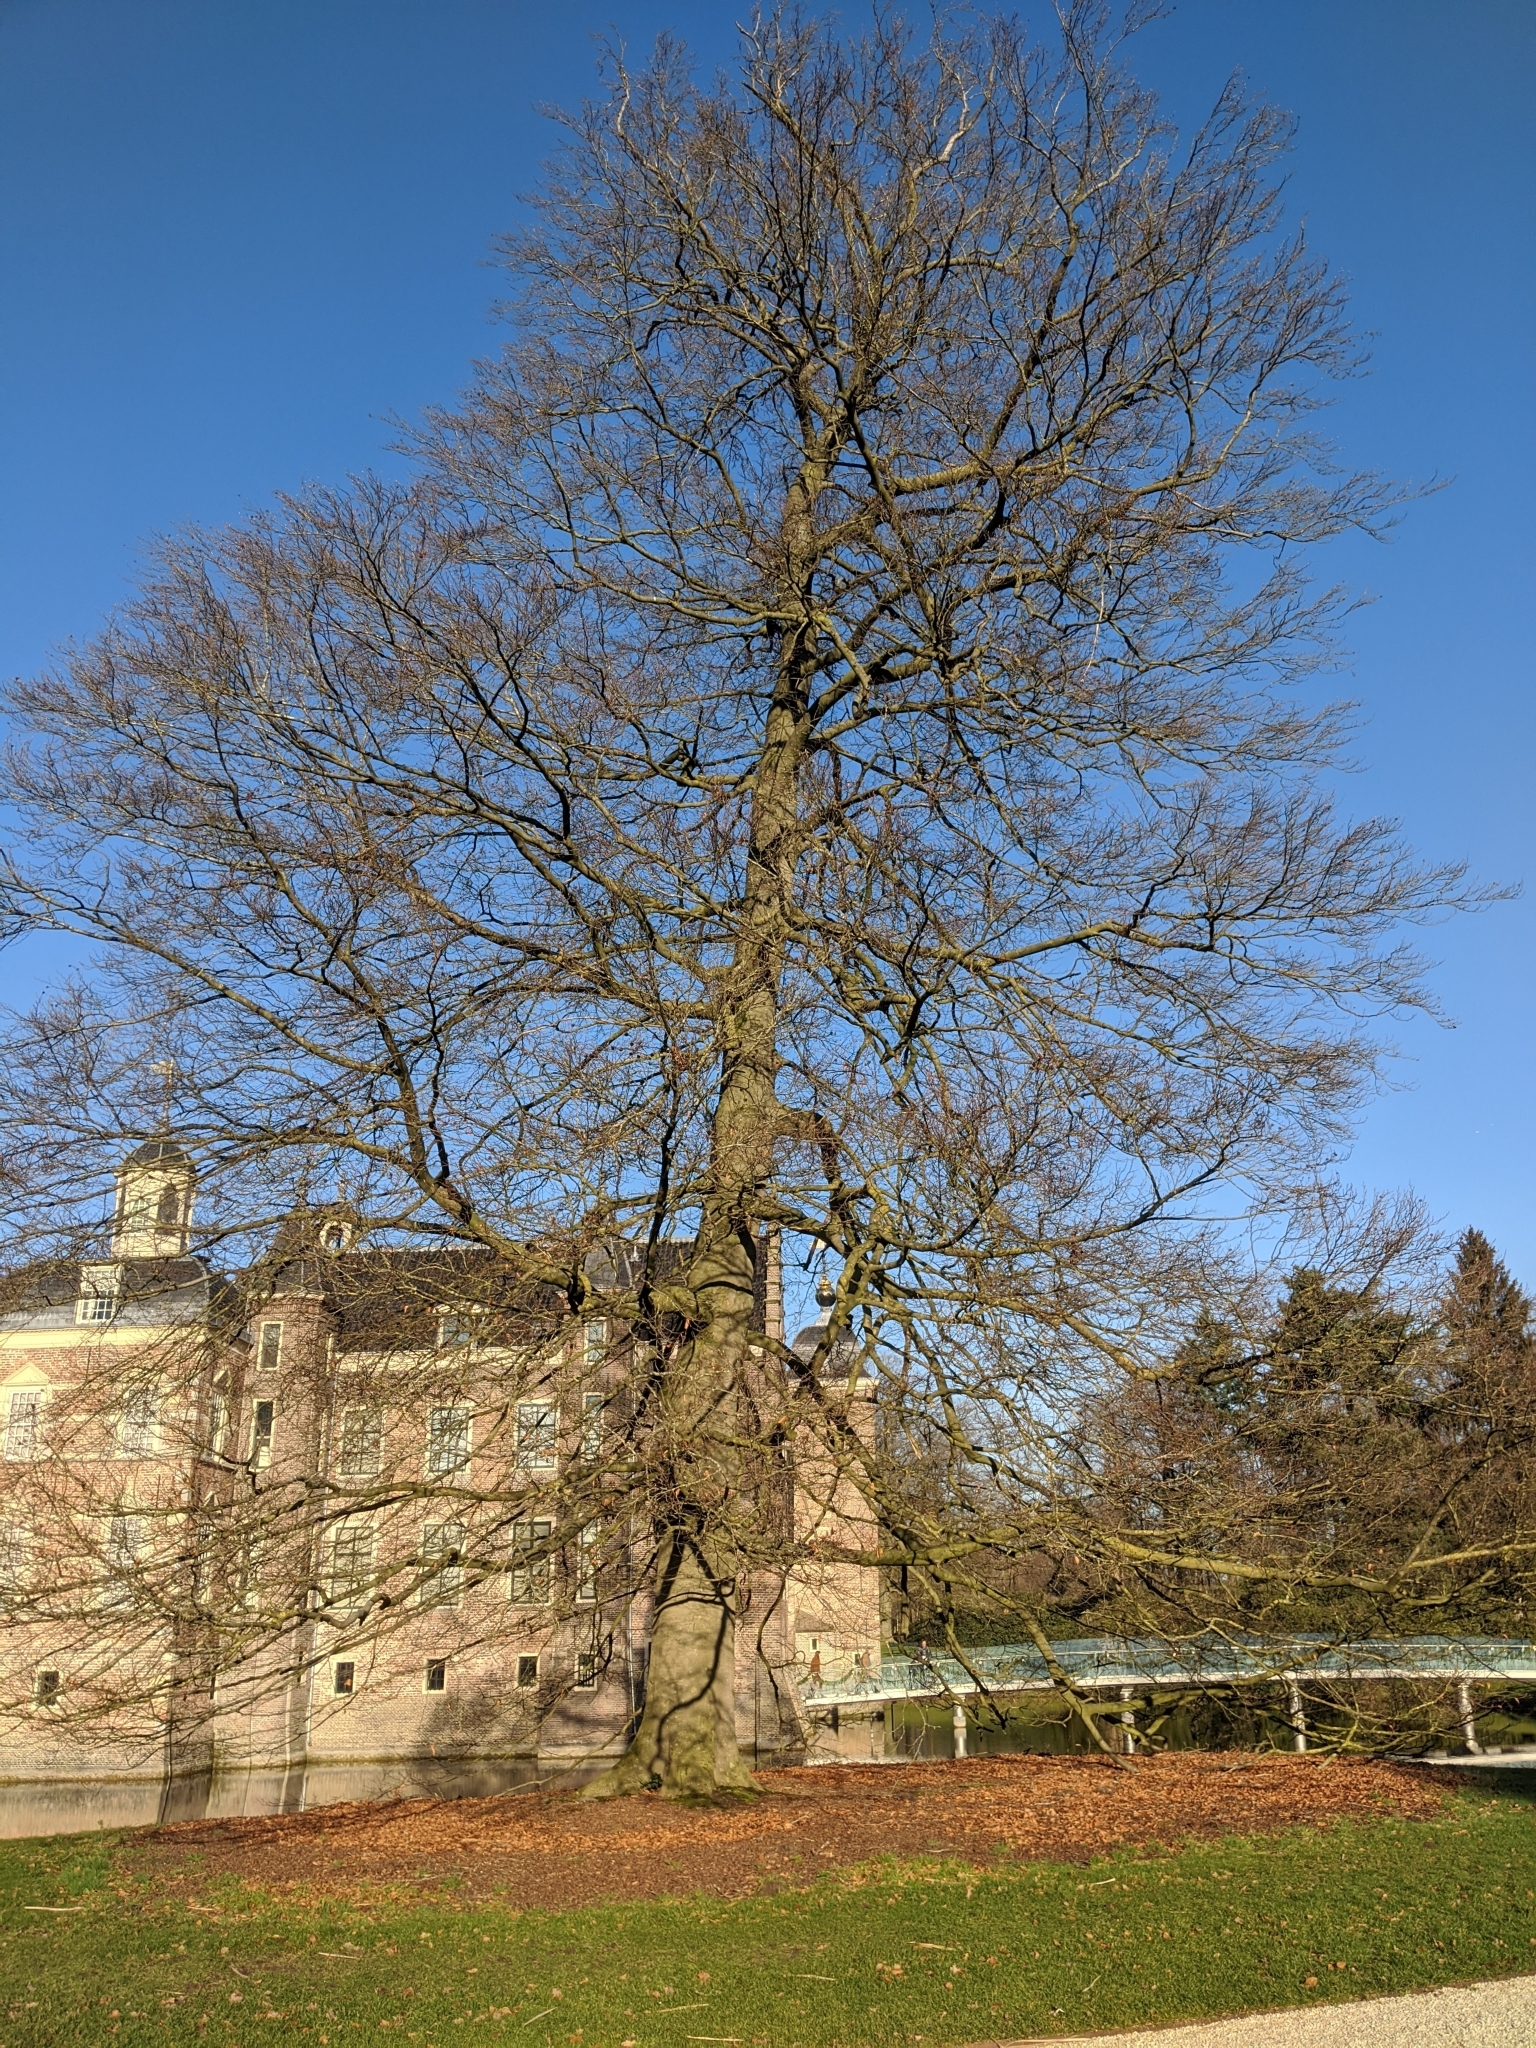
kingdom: Plantae
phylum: Tracheophyta
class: Magnoliopsida
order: Fagales
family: Fagaceae
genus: Fagus
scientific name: Fagus sylvatica
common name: Beech
